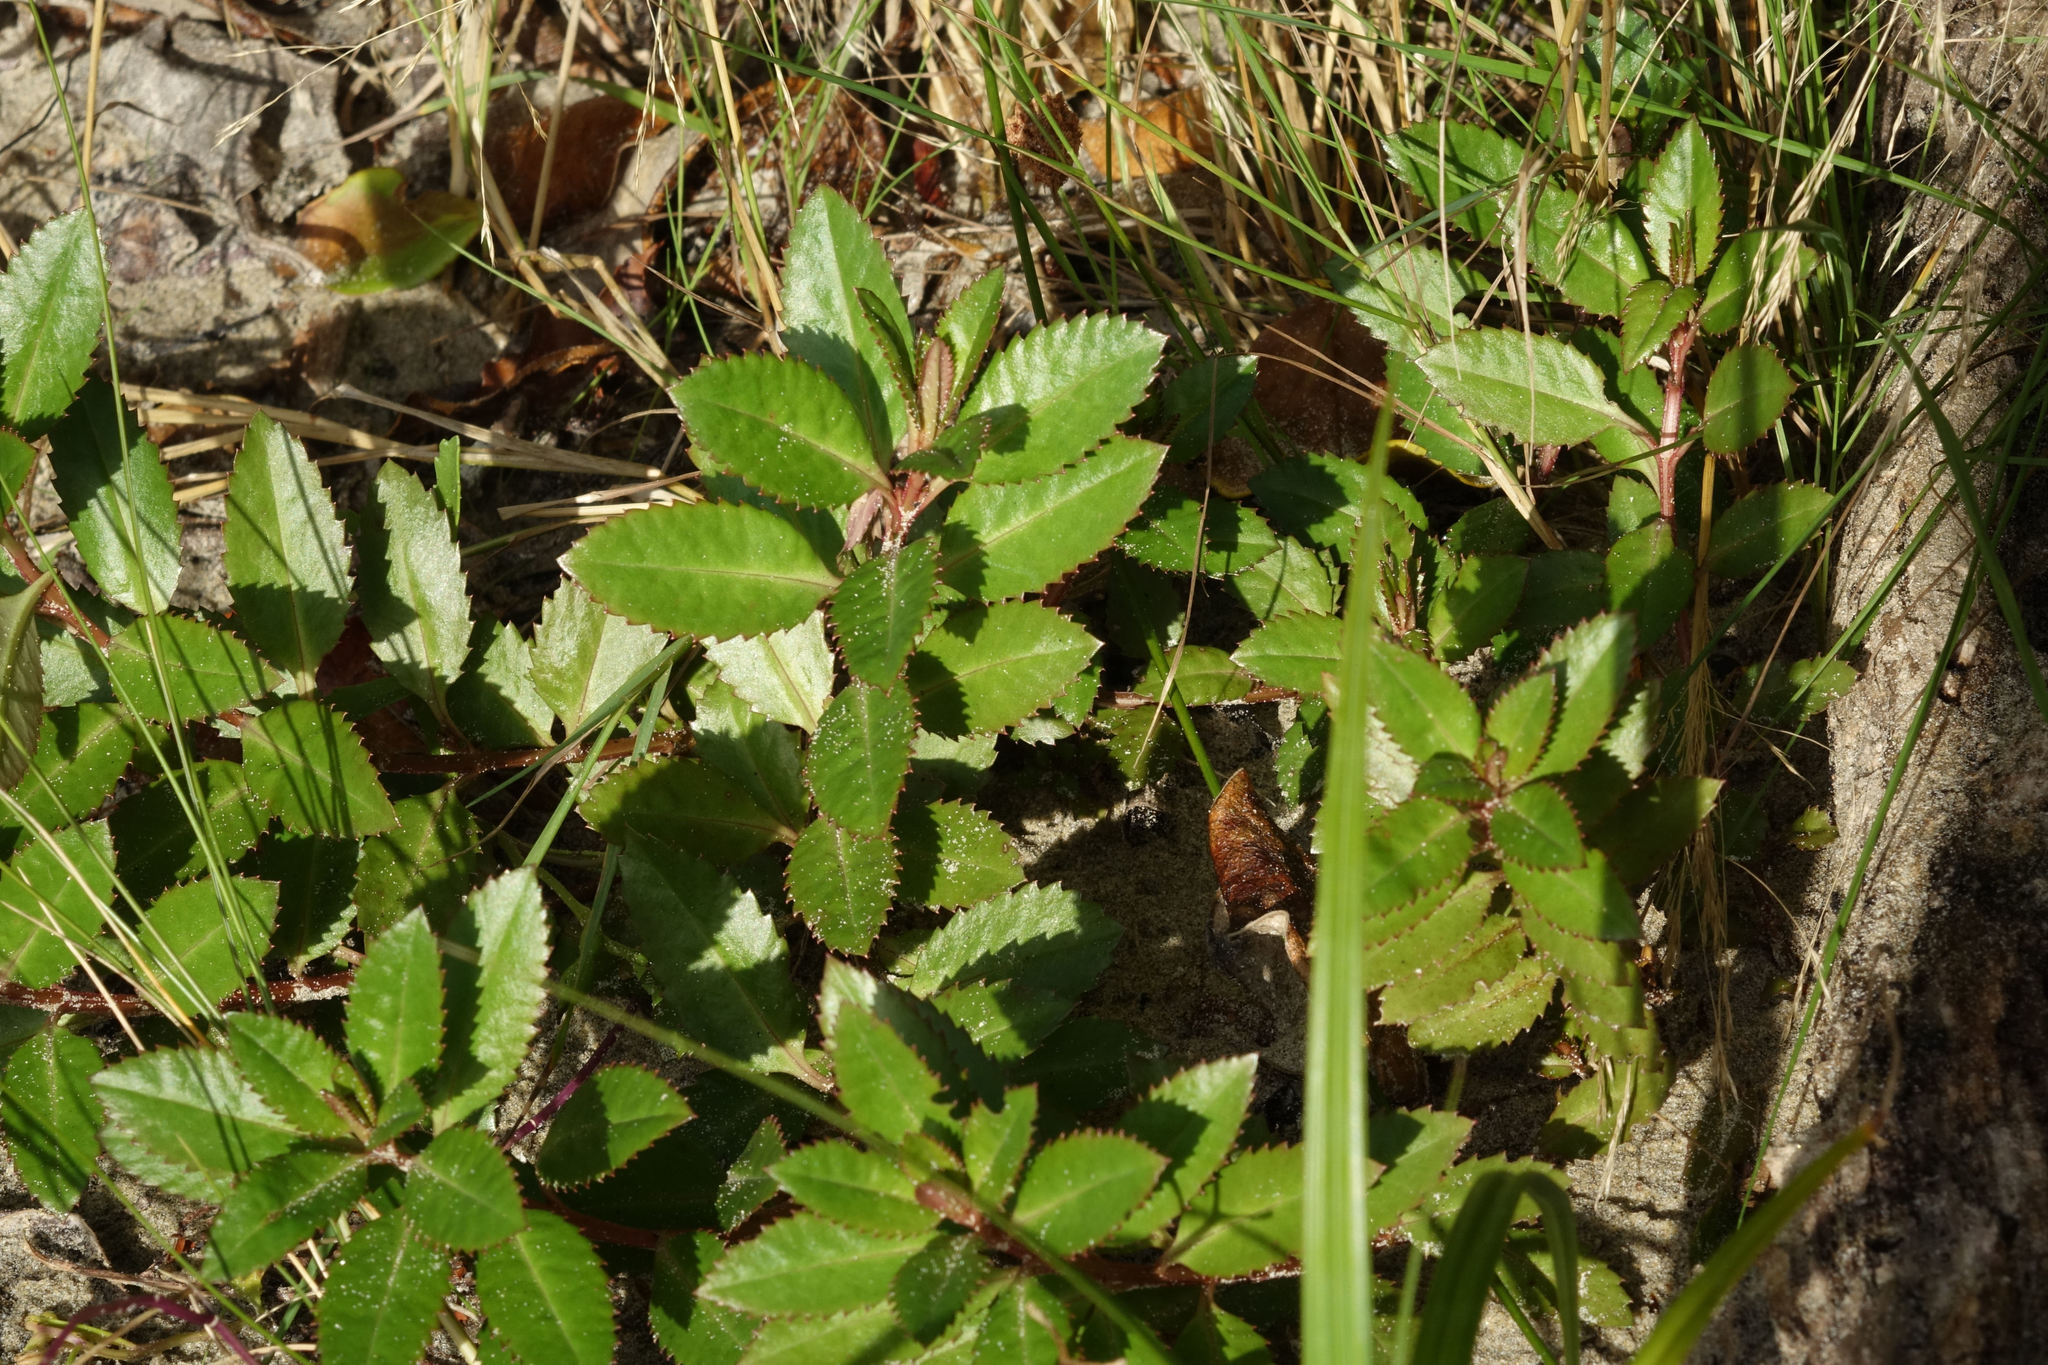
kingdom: Plantae
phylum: Tracheophyta
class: Magnoliopsida
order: Saxifragales
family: Haloragaceae
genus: Haloragis
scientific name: Haloragis erecta
